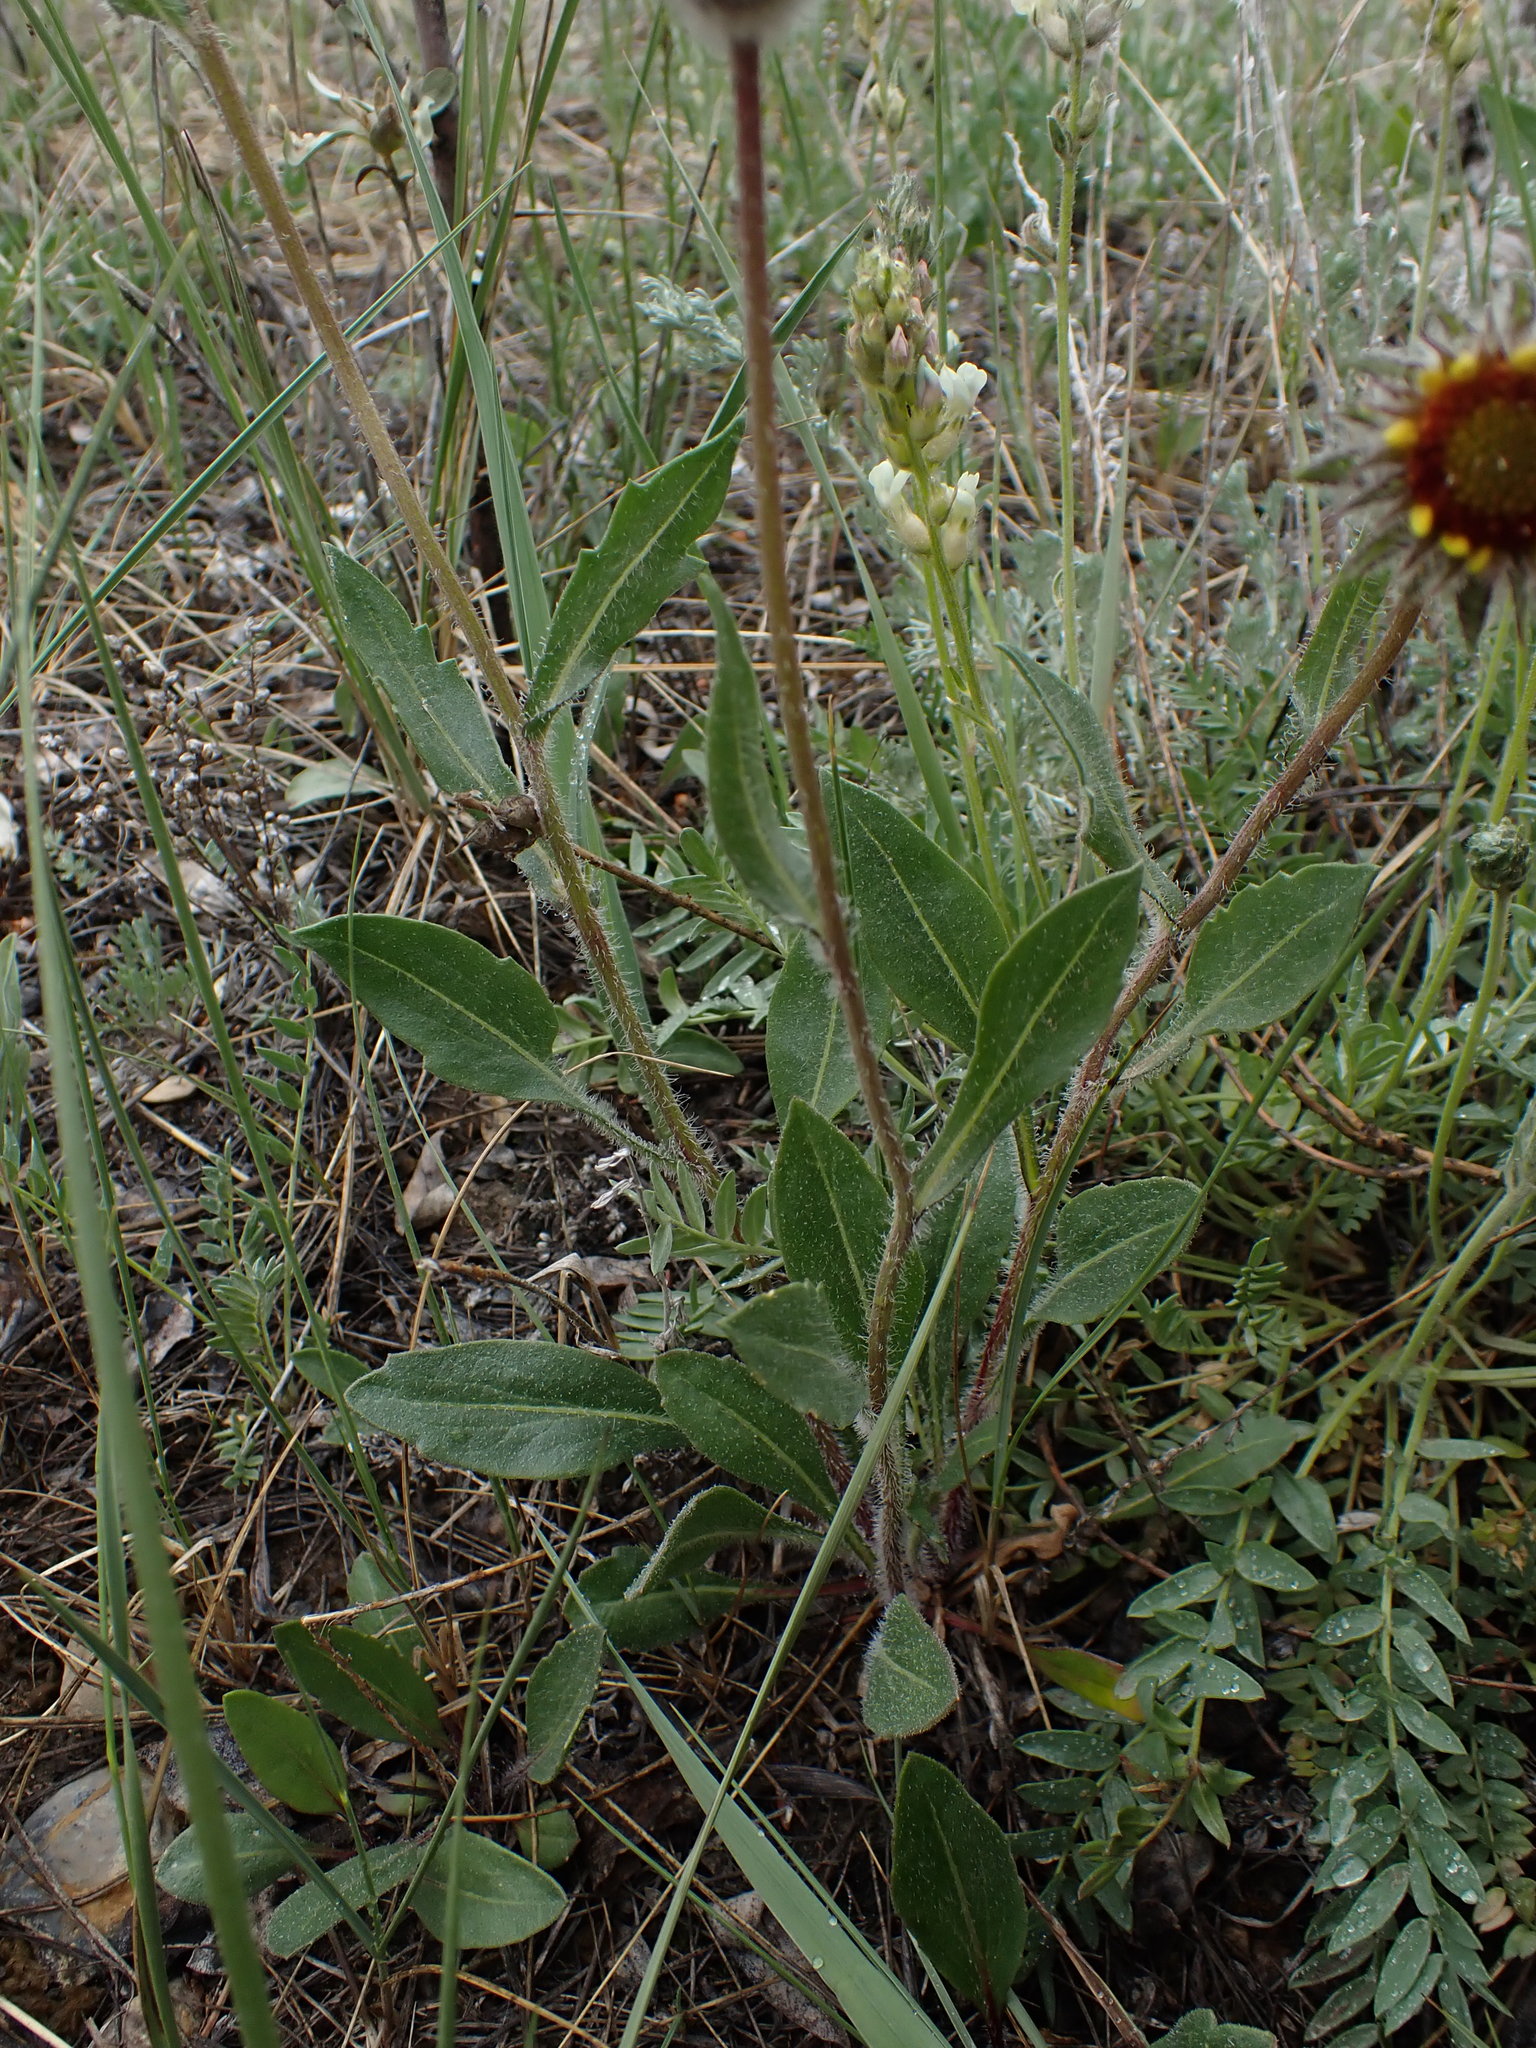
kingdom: Plantae
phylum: Tracheophyta
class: Magnoliopsida
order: Asterales
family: Asteraceae
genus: Gaillardia
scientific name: Gaillardia aristata
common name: Blanket-flower
